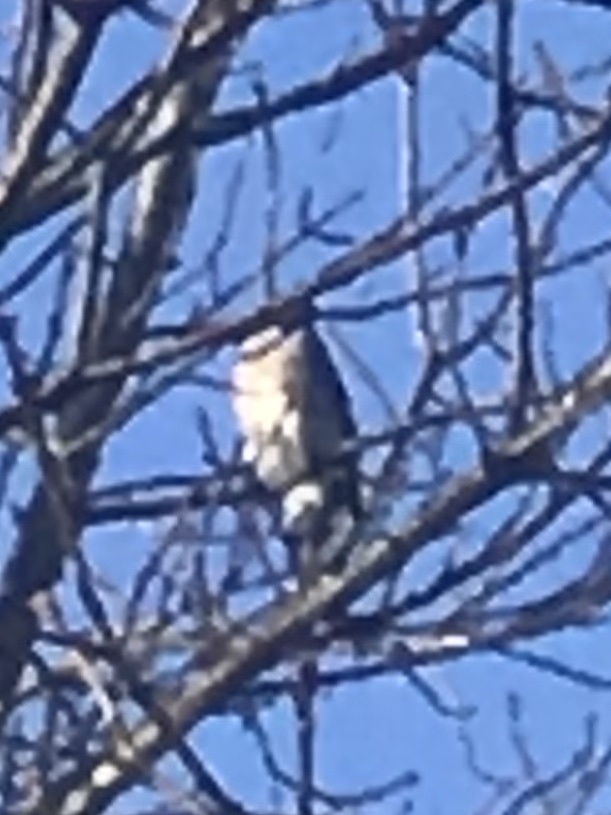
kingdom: Animalia
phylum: Chordata
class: Aves
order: Passeriformes
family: Corvidae
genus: Cyanocitta
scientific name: Cyanocitta cristata
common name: Blue jay
